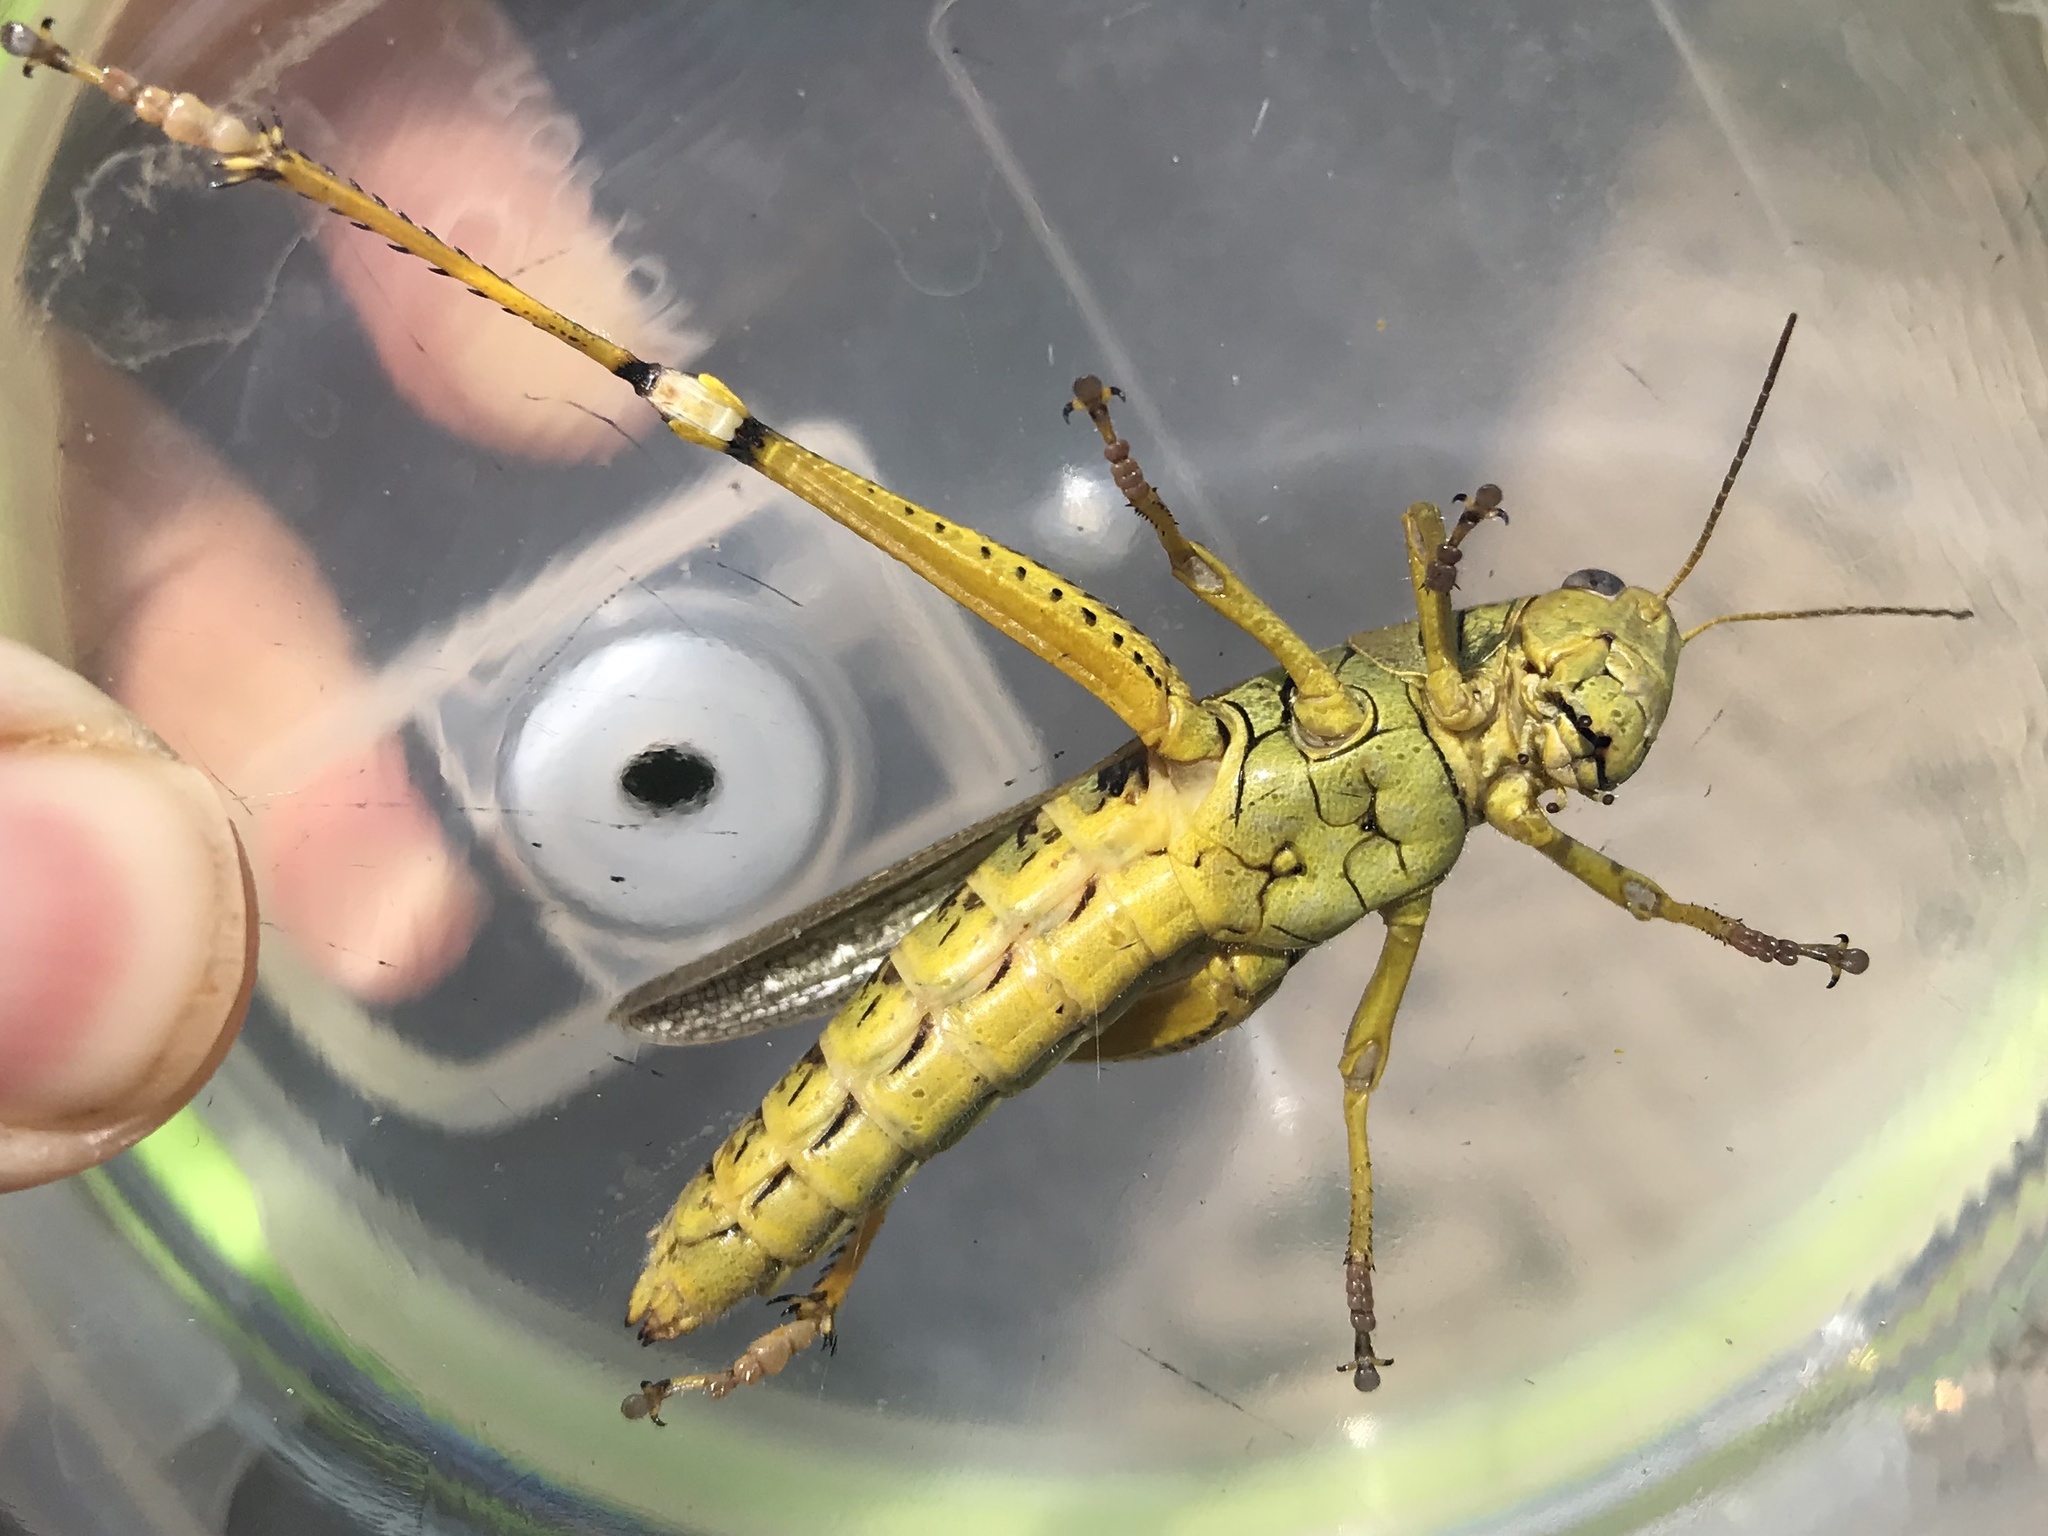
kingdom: Animalia
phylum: Arthropoda
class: Insecta
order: Orthoptera
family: Acrididae
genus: Melanoplus
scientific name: Melanoplus differentialis
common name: Differential grasshopper
